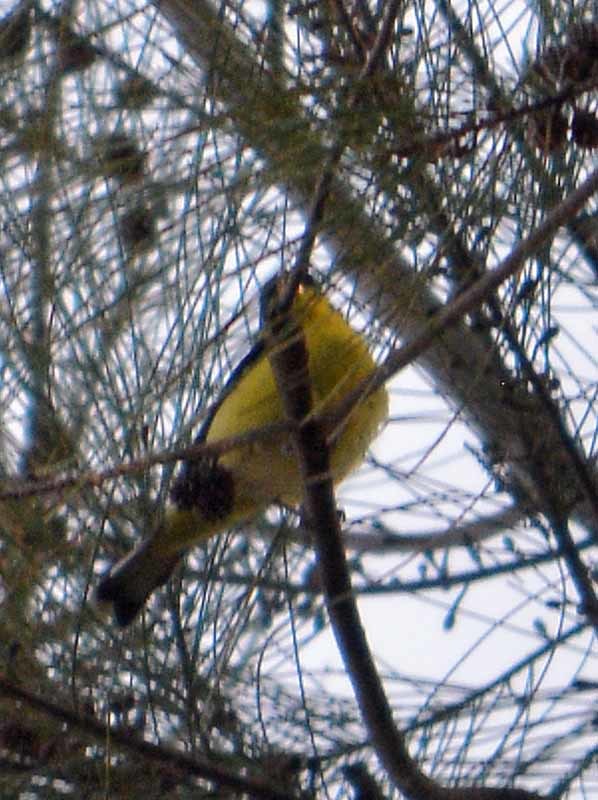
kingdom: Animalia
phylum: Chordata
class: Aves
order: Passeriformes
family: Fringillidae
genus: Spinus
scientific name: Spinus psaltria
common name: Lesser goldfinch
